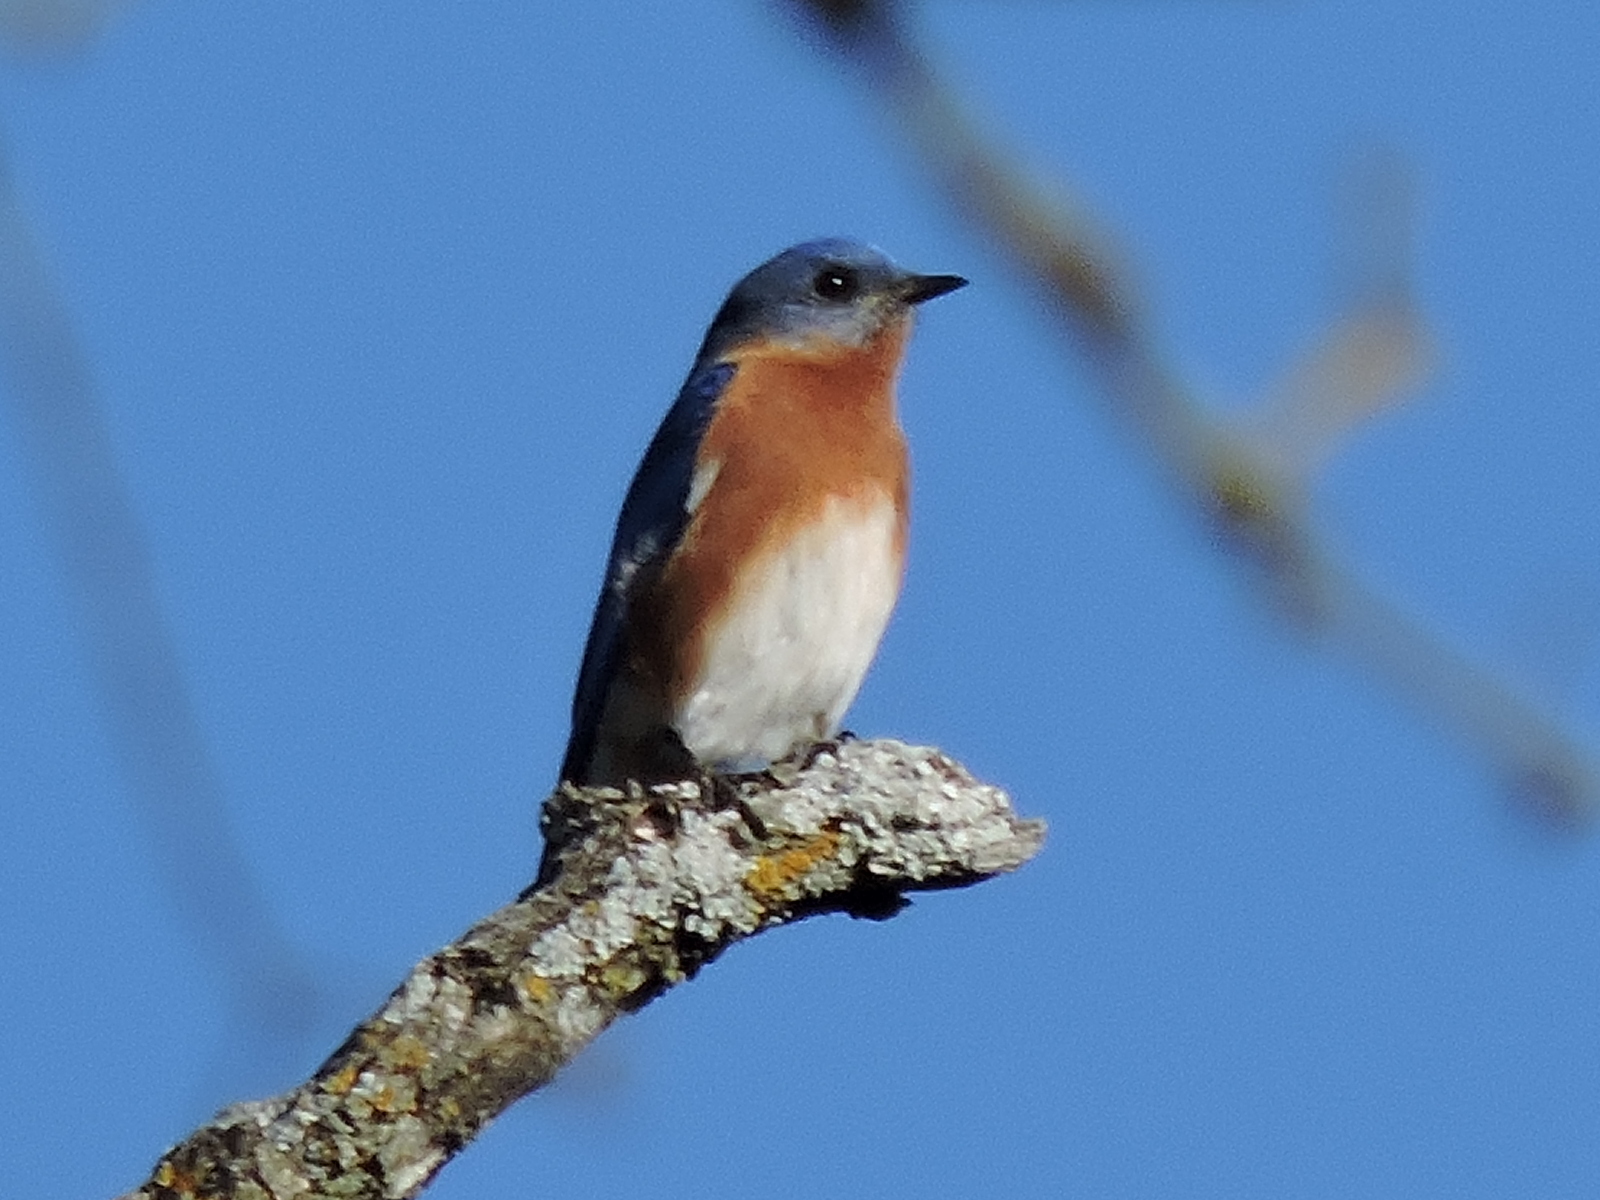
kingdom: Animalia
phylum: Chordata
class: Aves
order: Passeriformes
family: Turdidae
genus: Sialia
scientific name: Sialia sialis
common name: Eastern bluebird
